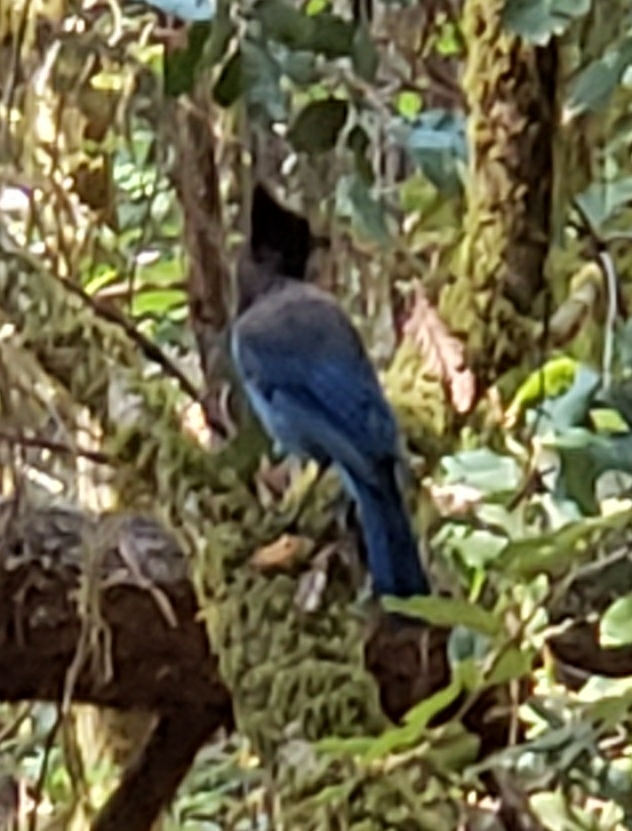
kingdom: Animalia
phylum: Chordata
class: Aves
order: Passeriformes
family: Corvidae
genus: Cyanocitta
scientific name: Cyanocitta stelleri
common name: Steller's jay
